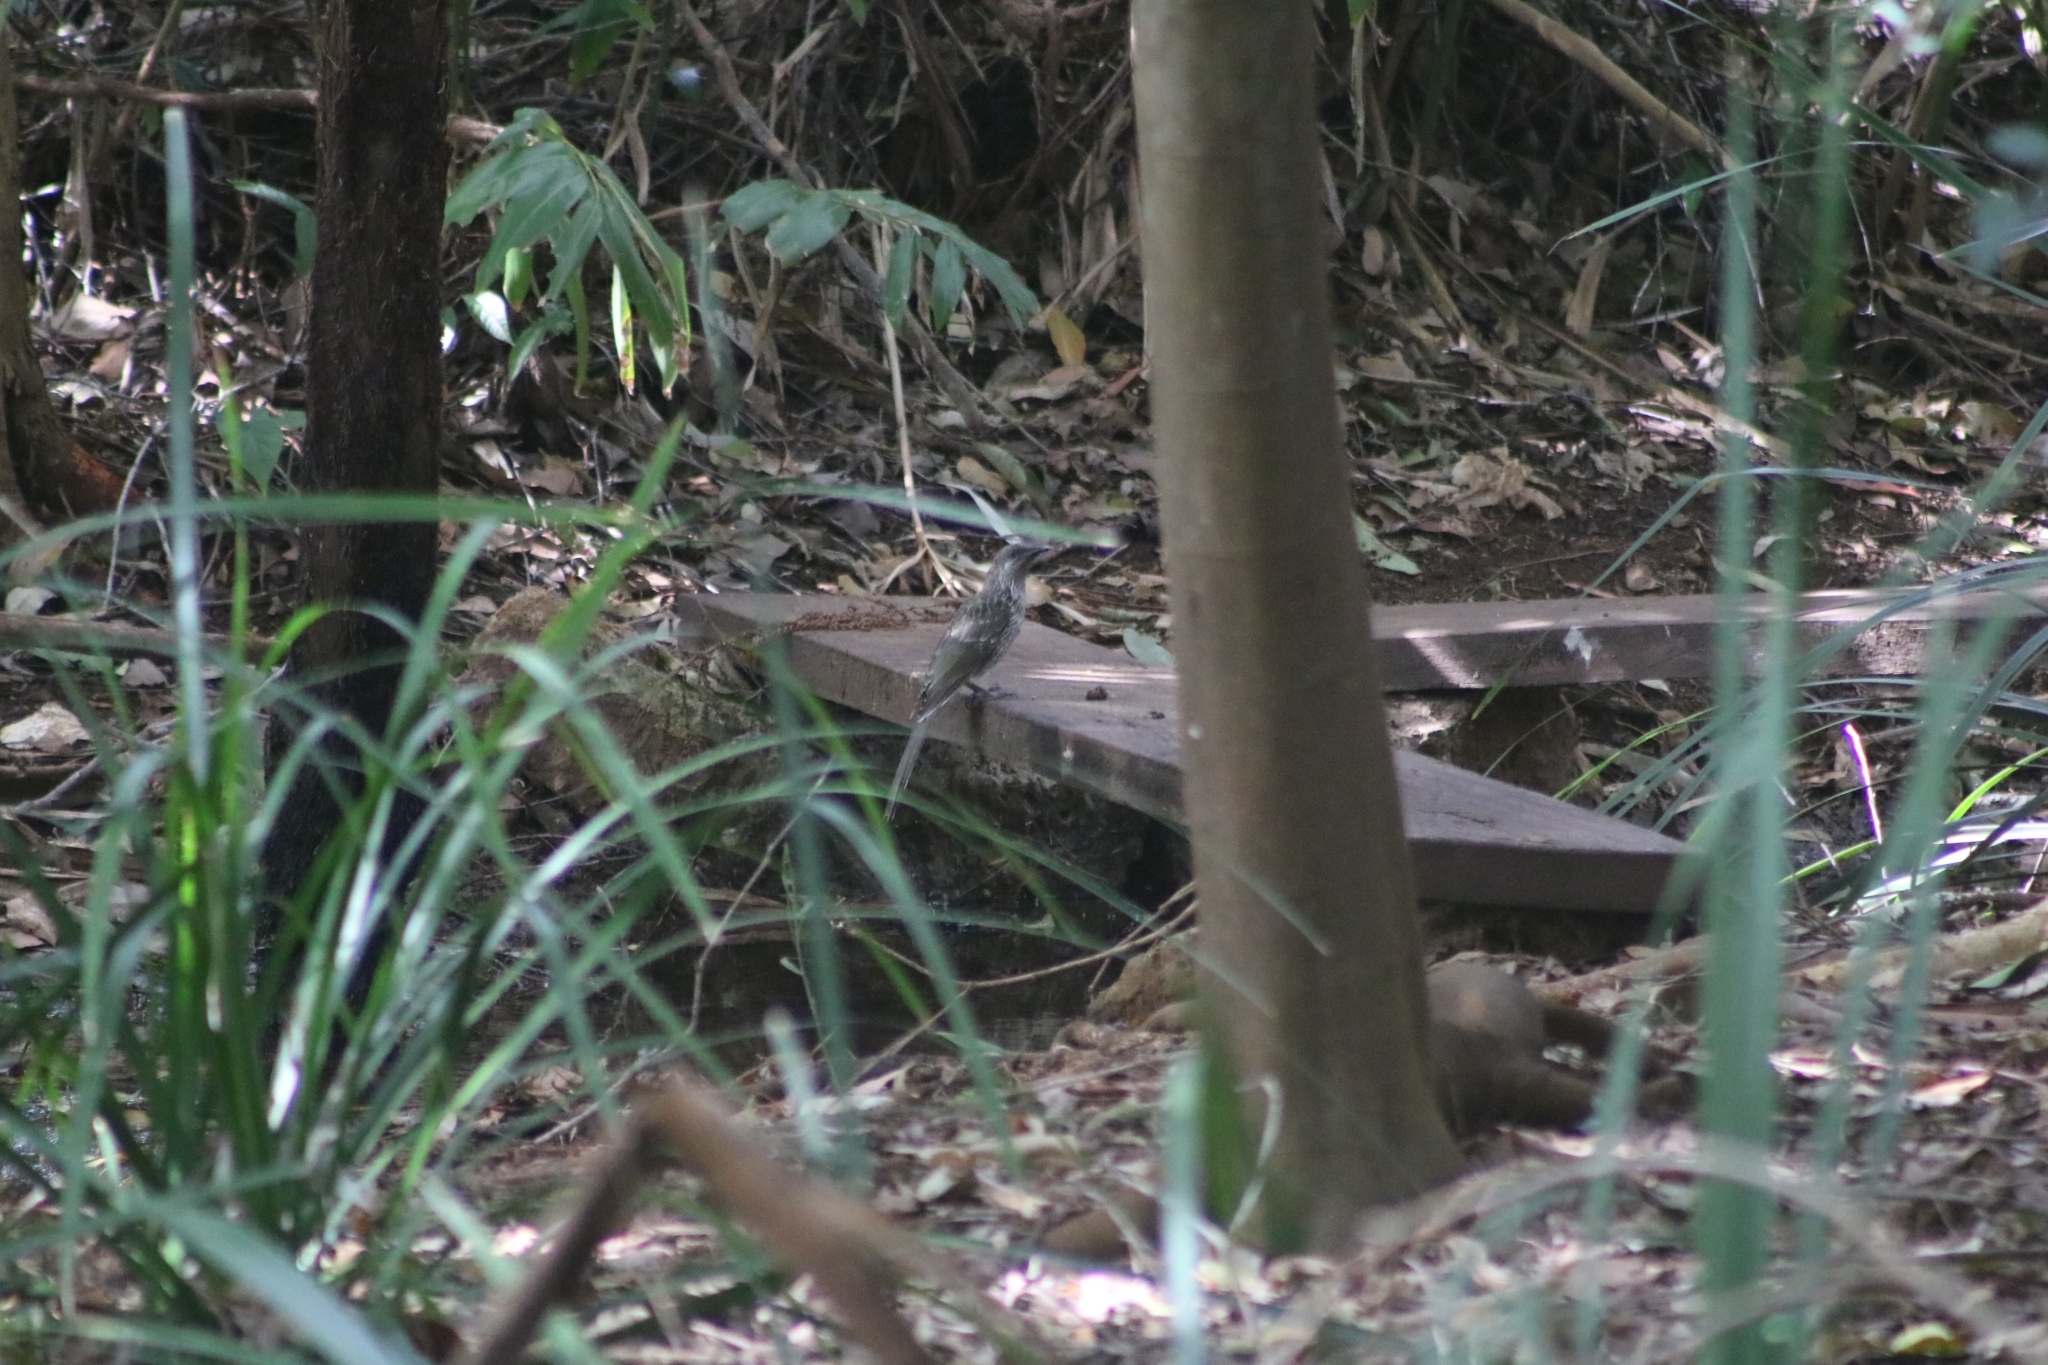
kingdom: Animalia
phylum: Chordata
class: Aves
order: Passeriformes
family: Meliphagidae
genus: Anthochaera
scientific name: Anthochaera chrysoptera
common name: Little wattlebird
